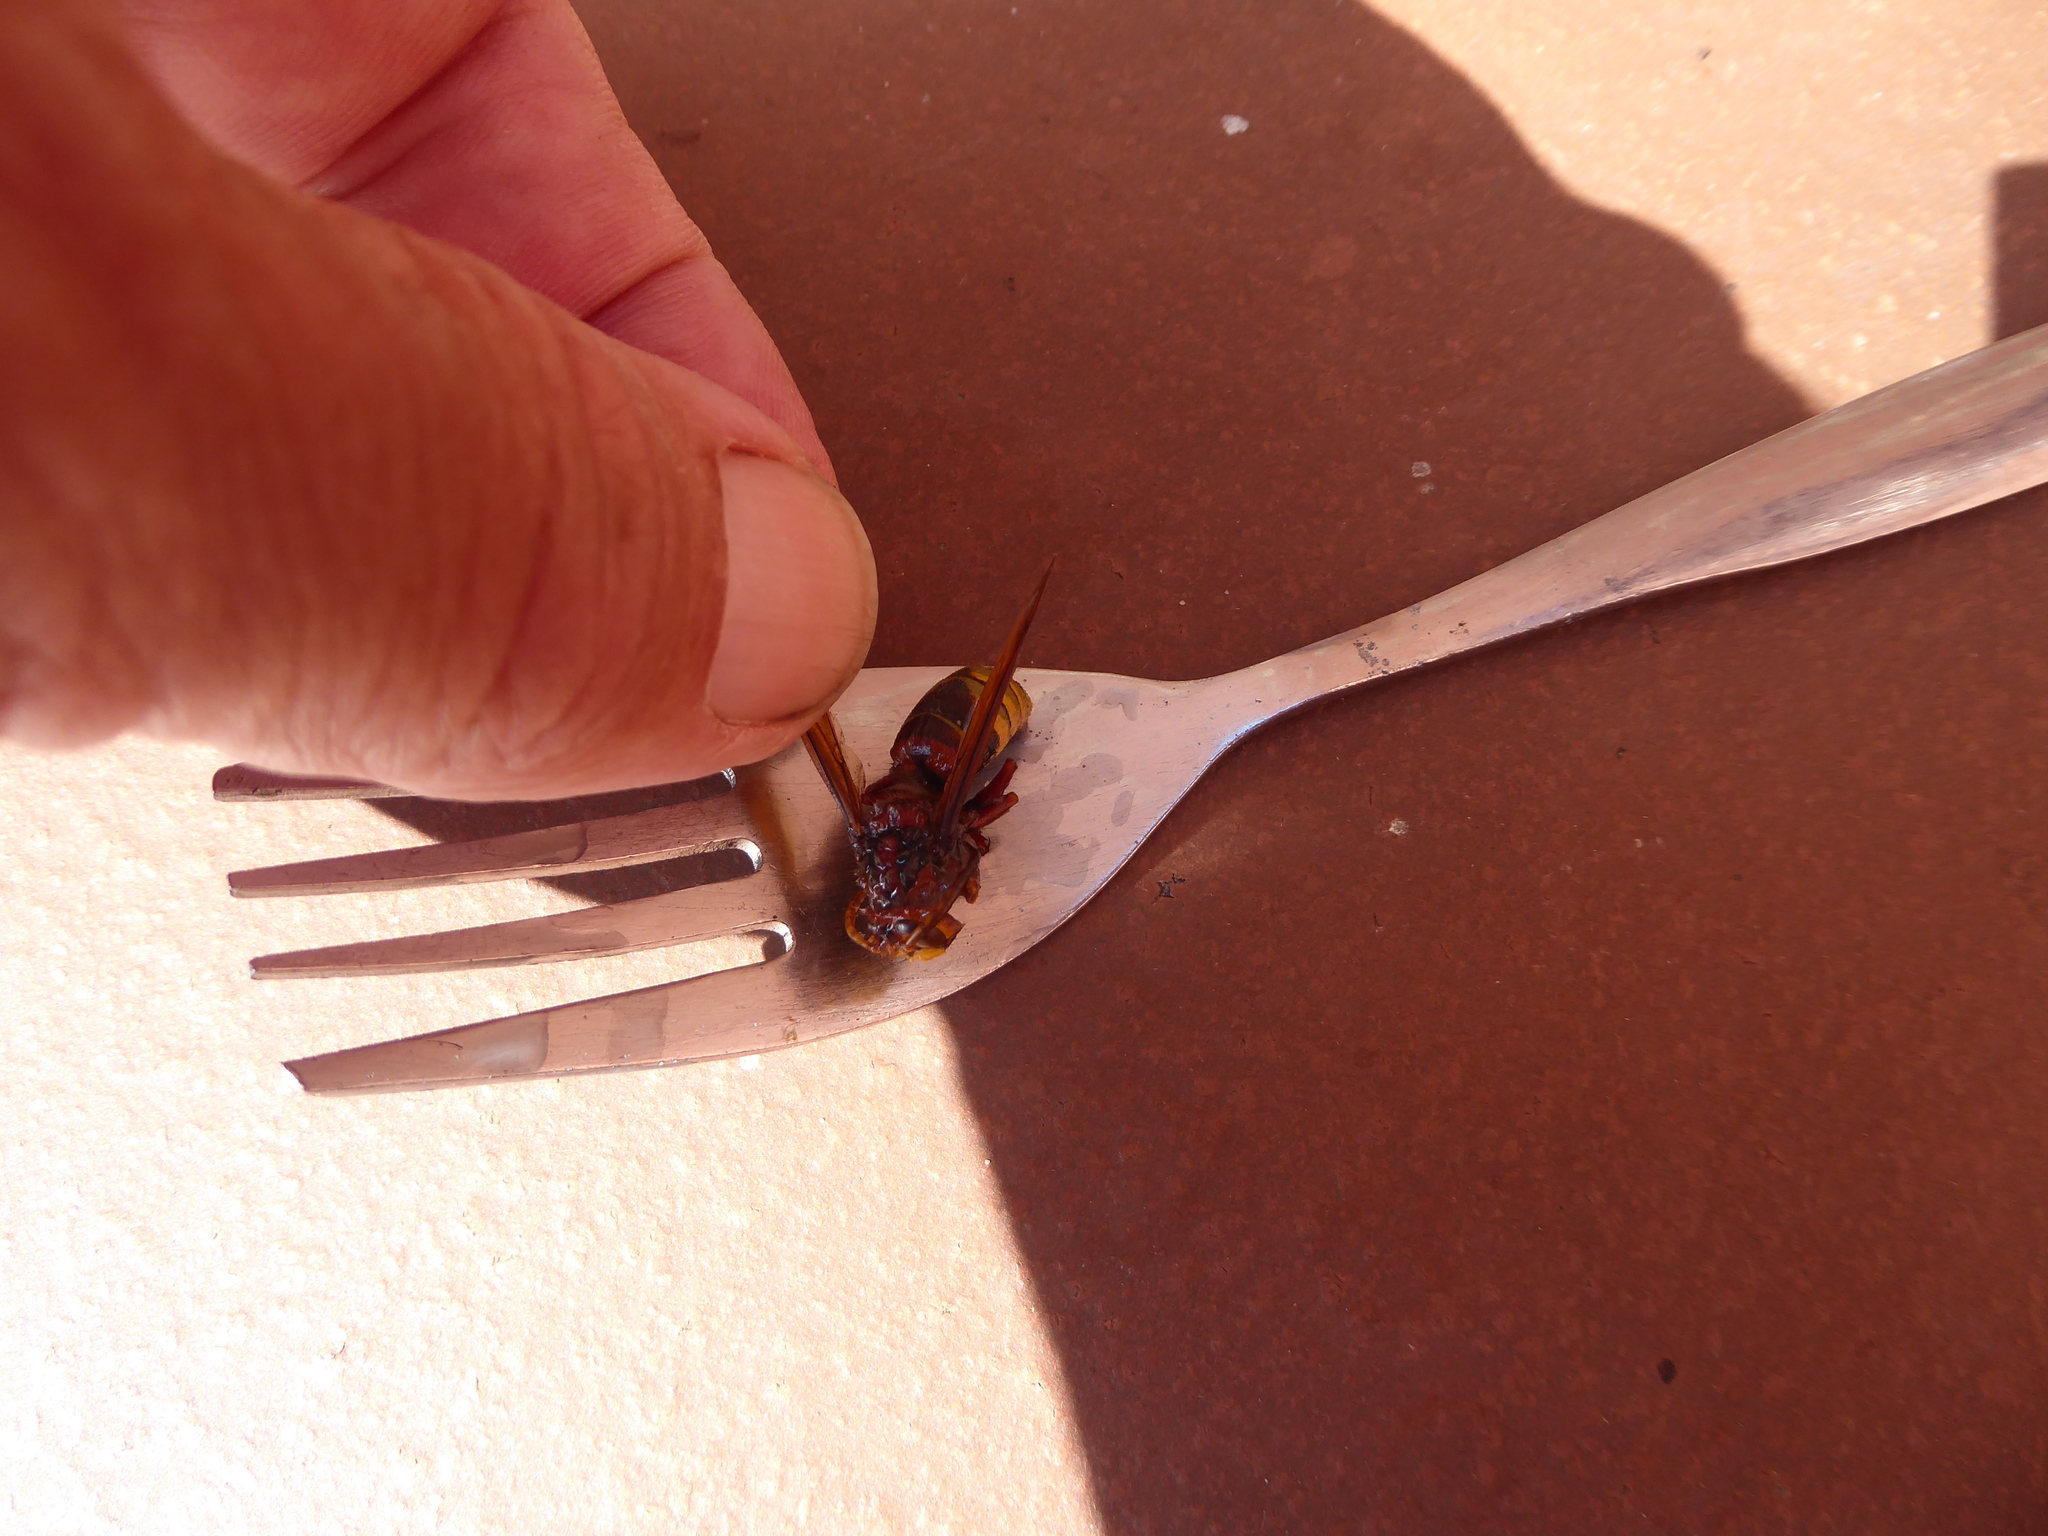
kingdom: Animalia
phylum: Arthropoda
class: Insecta
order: Hymenoptera
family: Vespidae
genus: Vespa
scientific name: Vespa crabro
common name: Hornet
